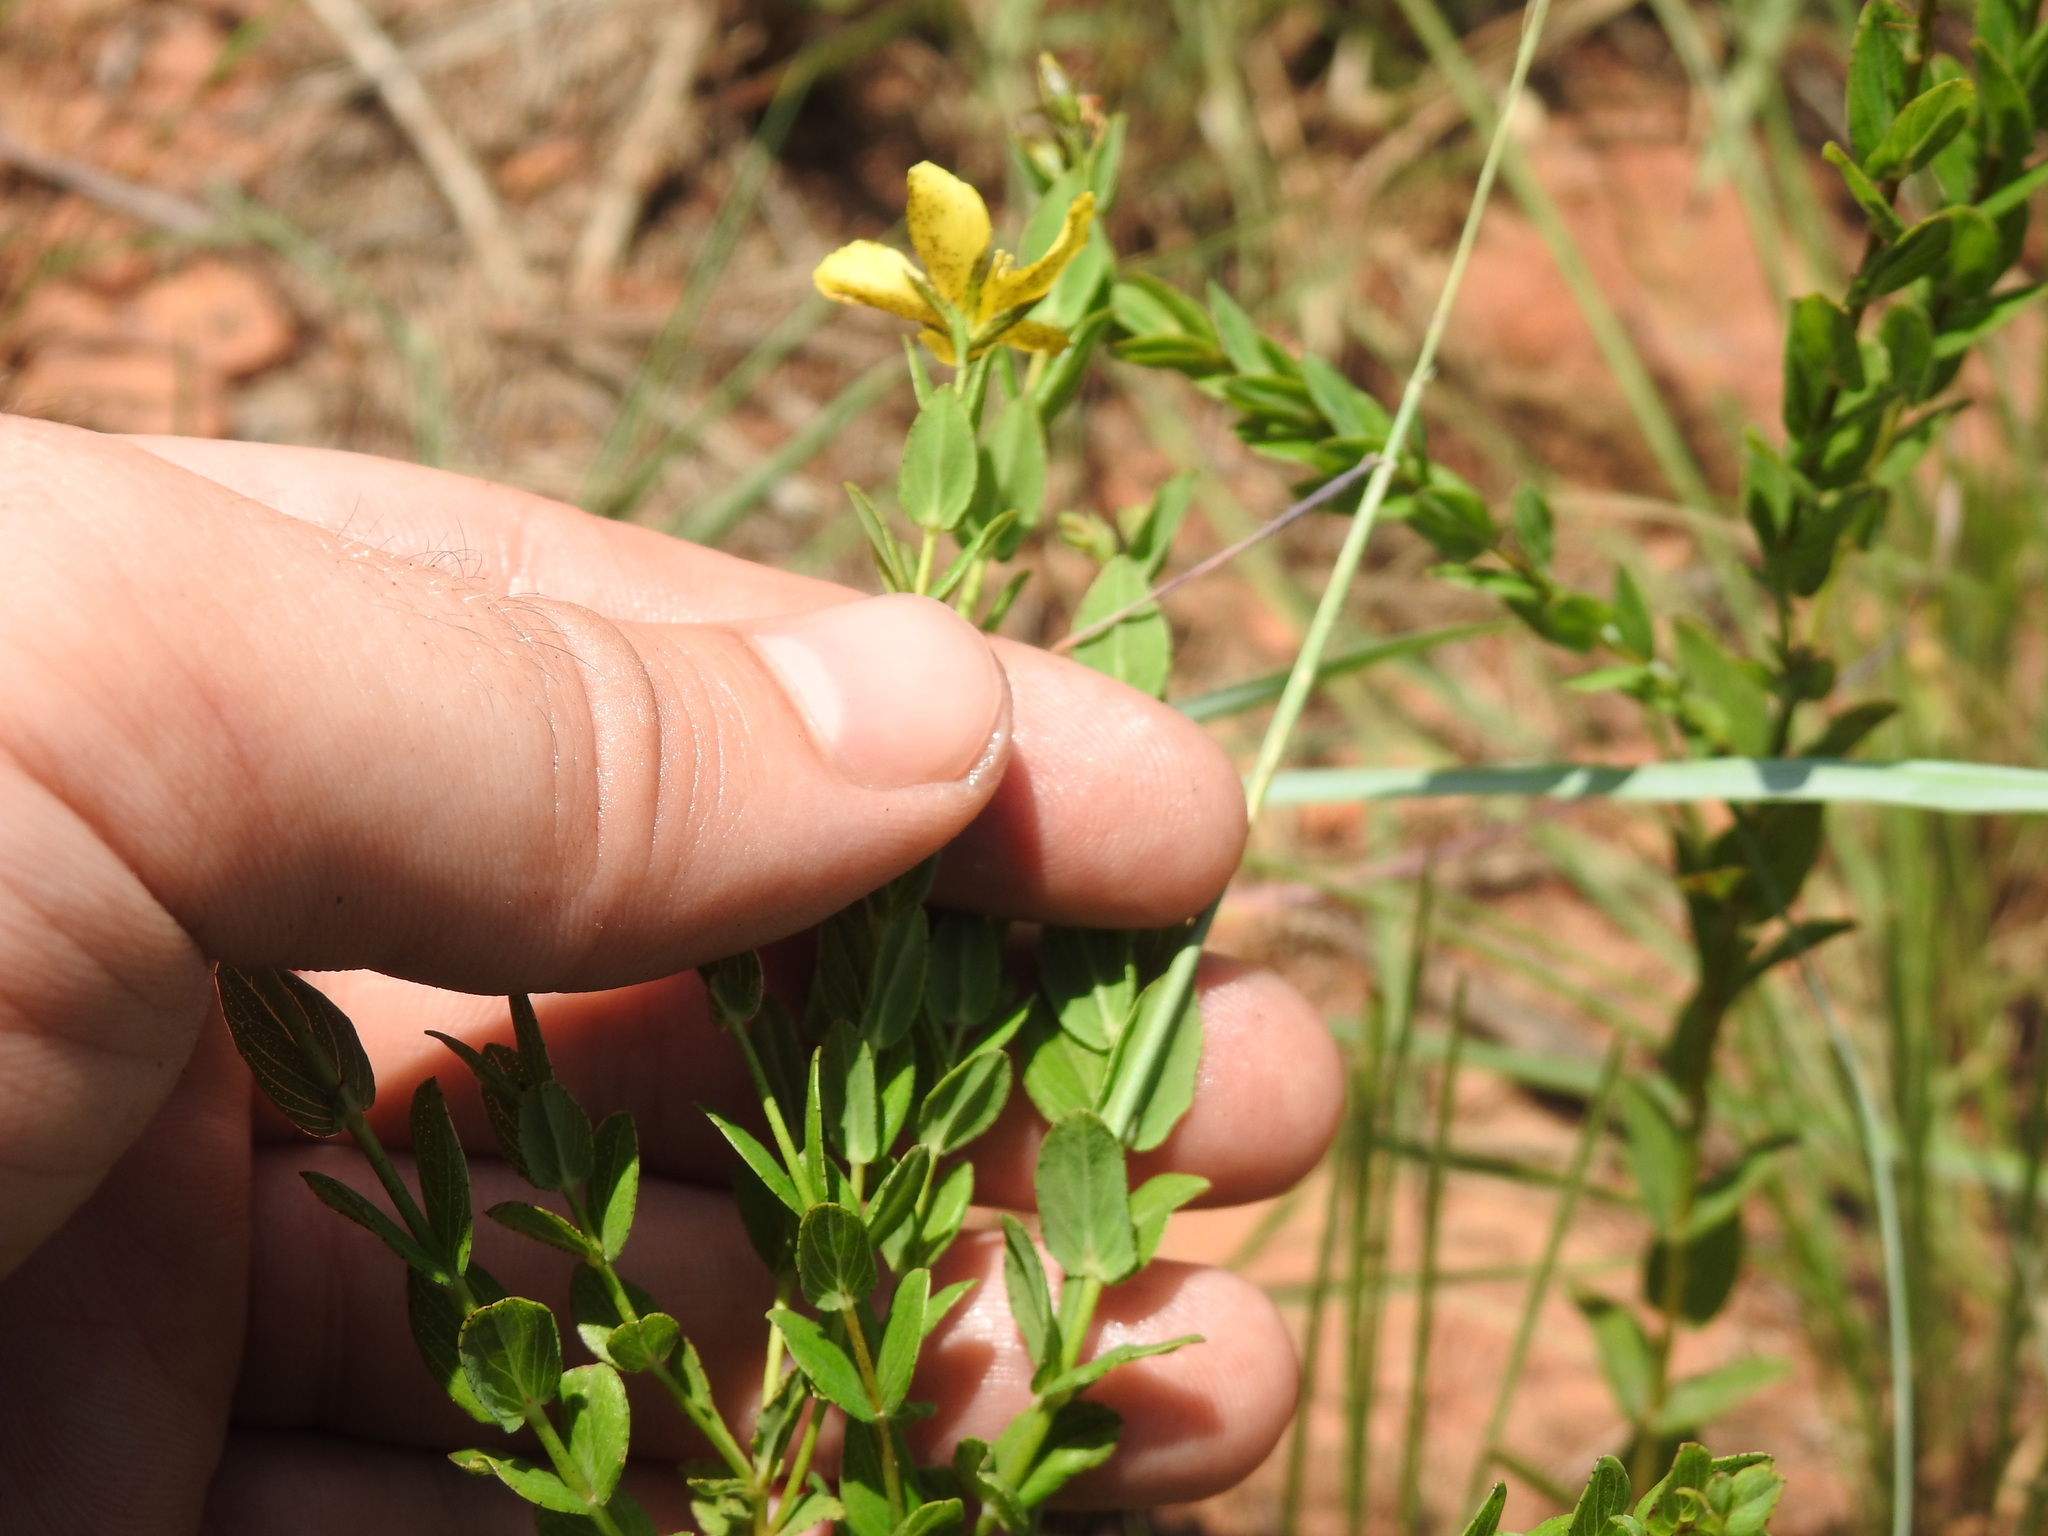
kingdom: Plantae
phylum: Tracheophyta
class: Magnoliopsida
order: Malpighiales
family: Hypericaceae
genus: Hypericum
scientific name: Hypericum aethiopicum
